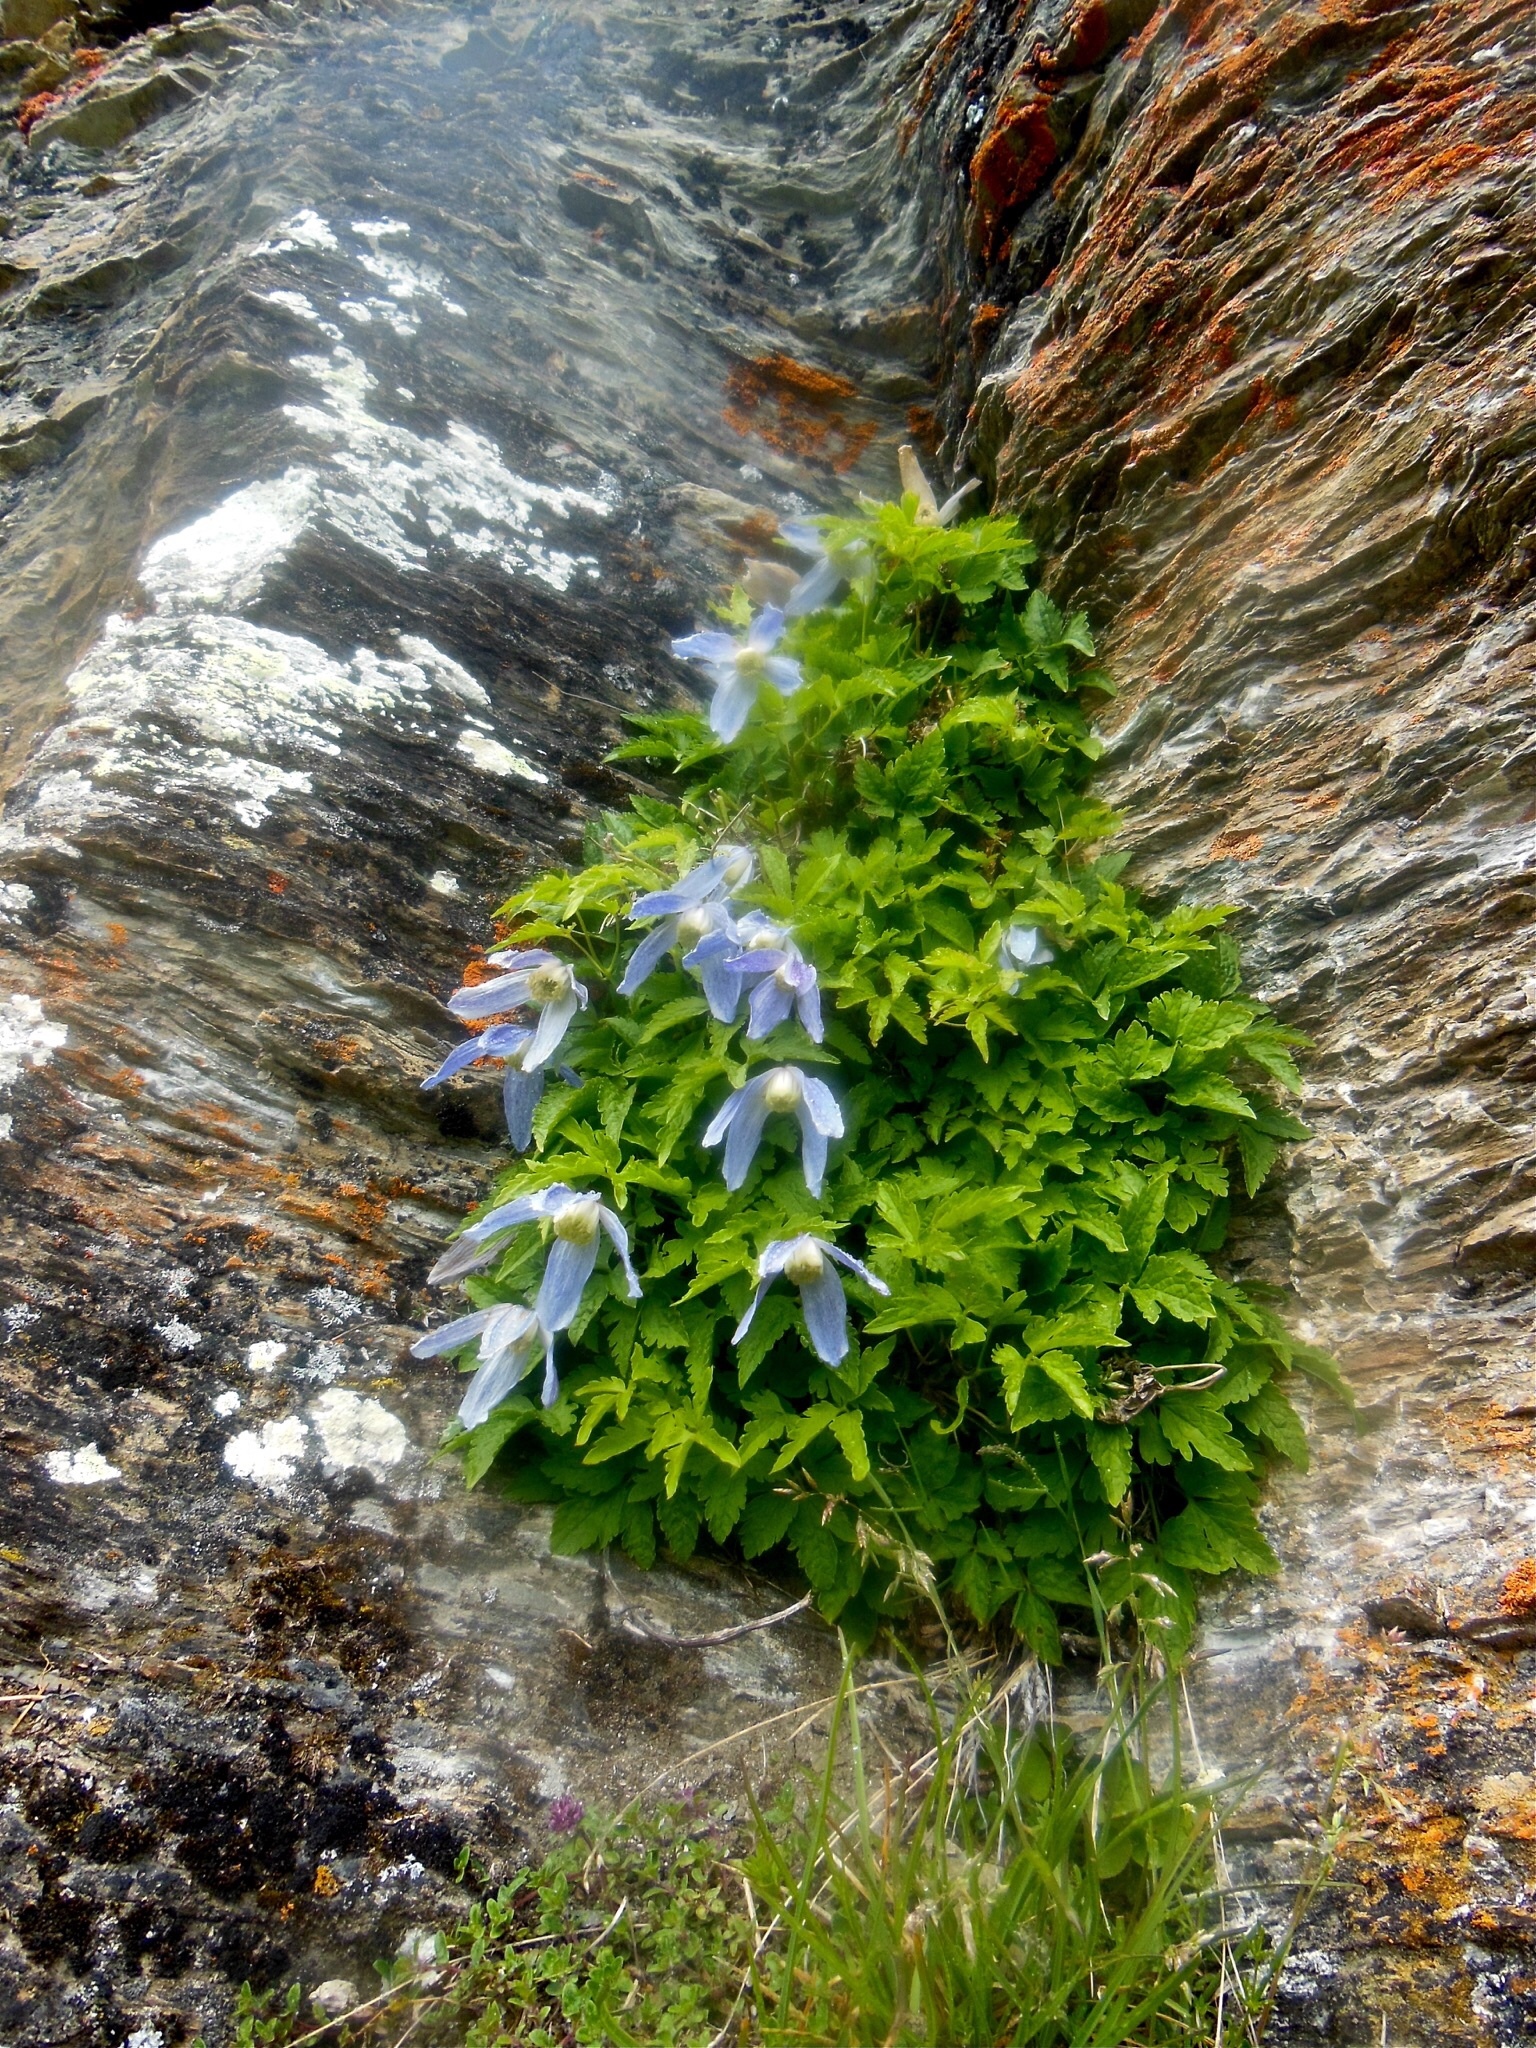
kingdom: Plantae
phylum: Tracheophyta
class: Magnoliopsida
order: Ranunculales
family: Ranunculaceae
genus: Clematis
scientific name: Clematis alpina
